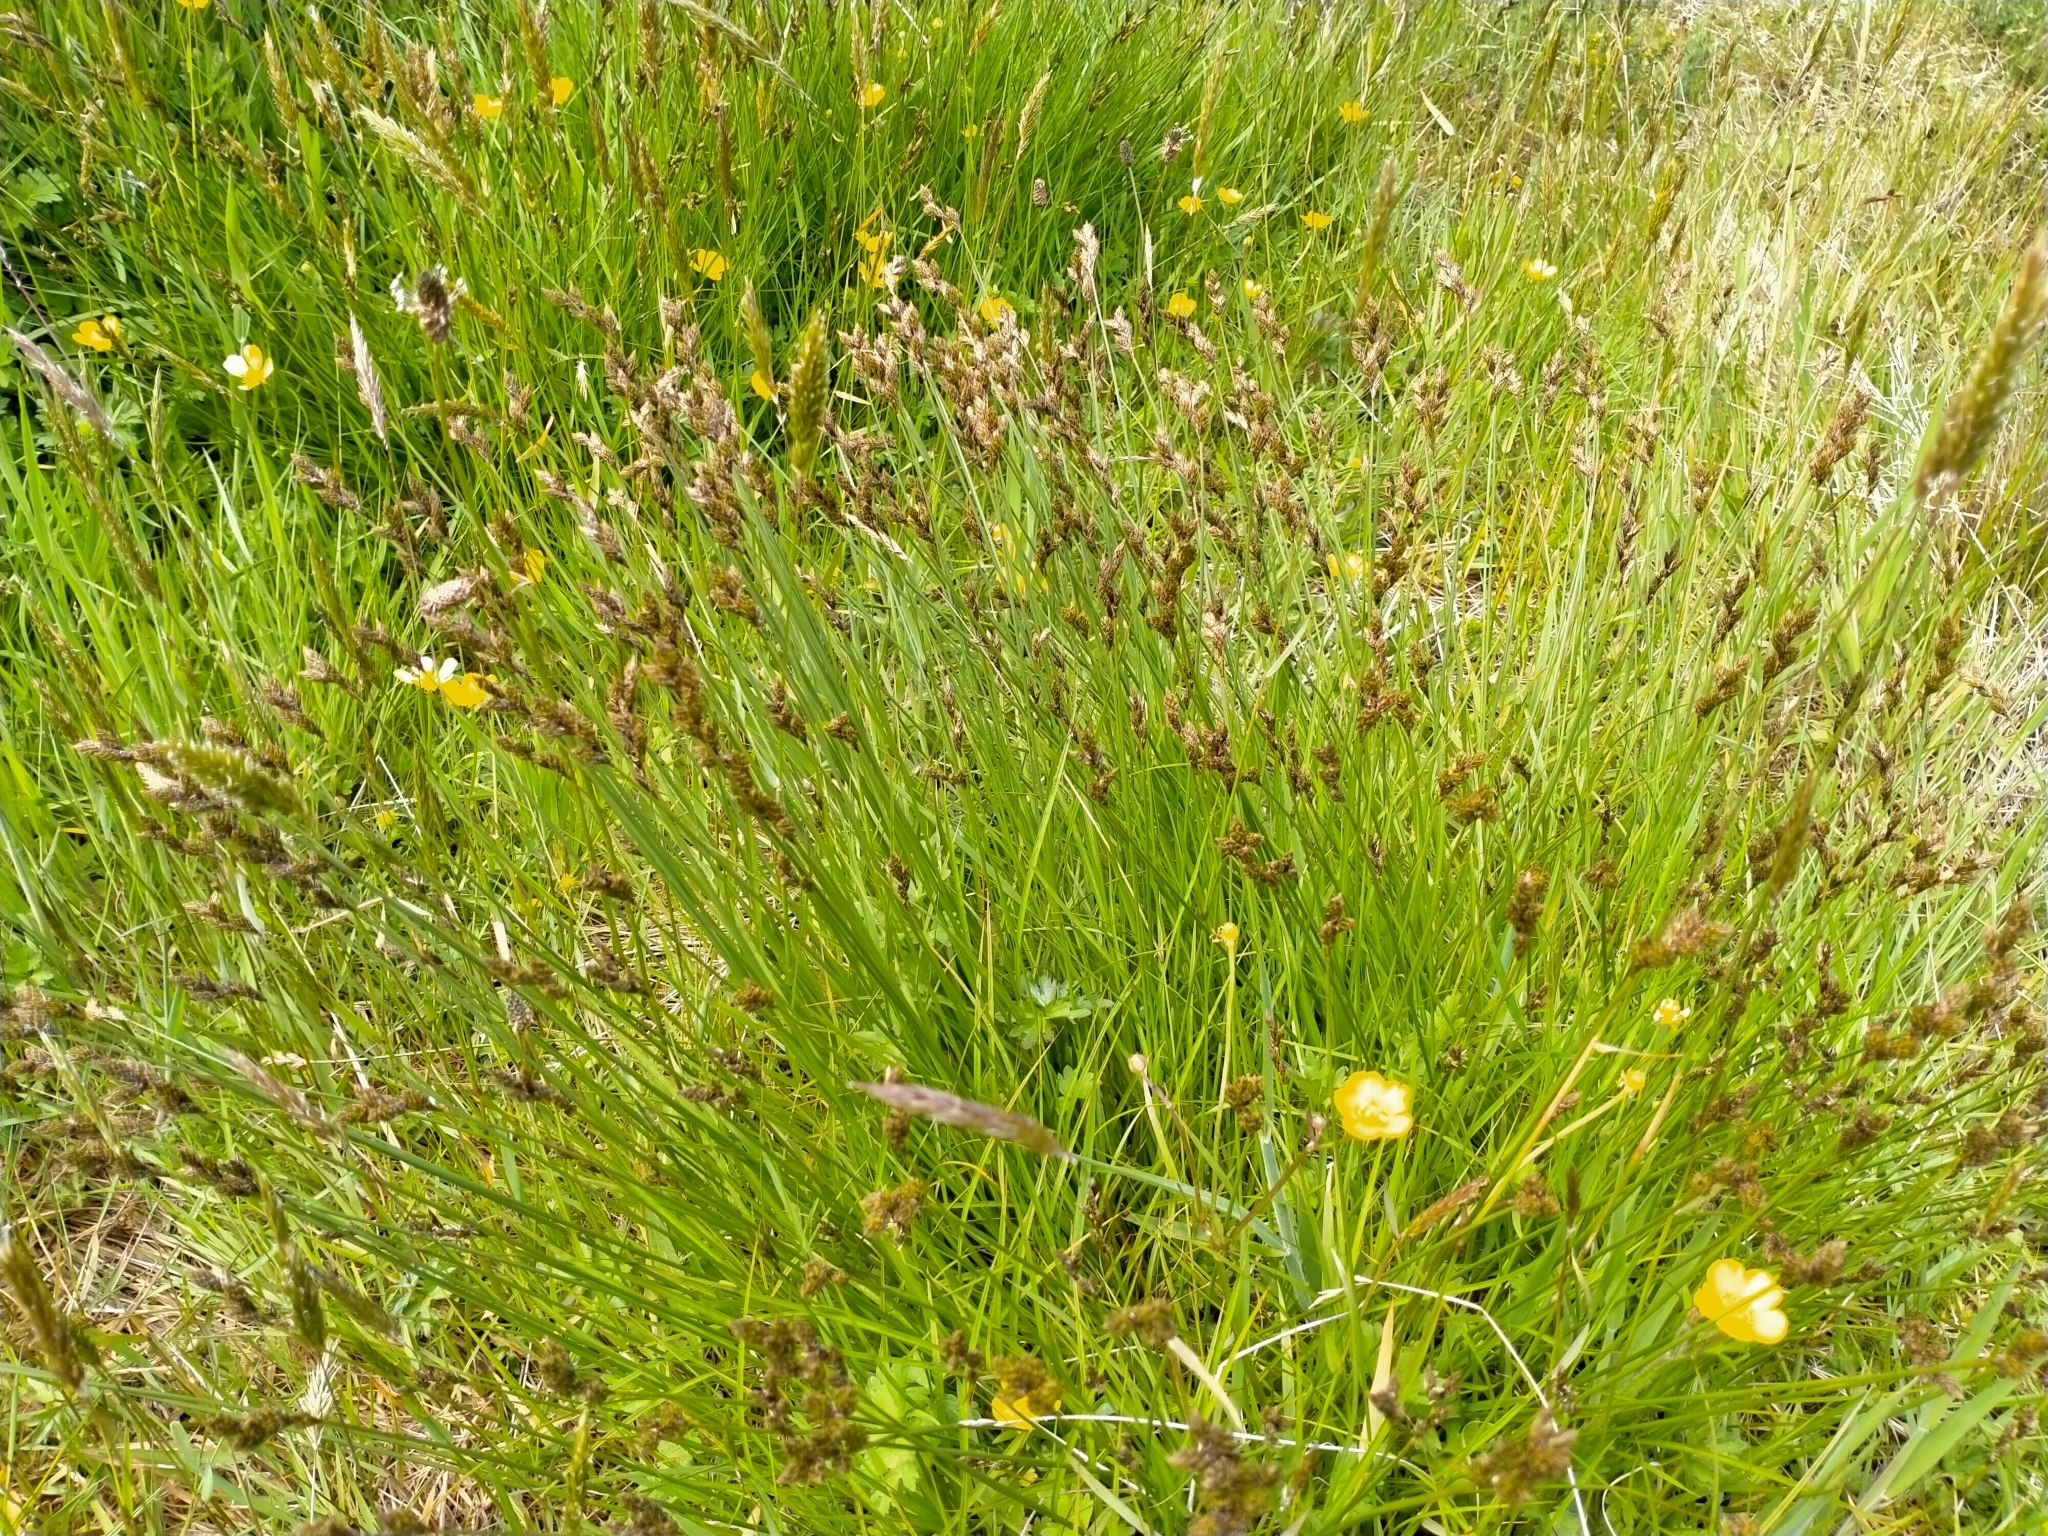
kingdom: Plantae
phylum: Tracheophyta
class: Liliopsida
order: Poales
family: Cyperaceae
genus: Carex
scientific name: Carex leporina
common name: Oval sedge
